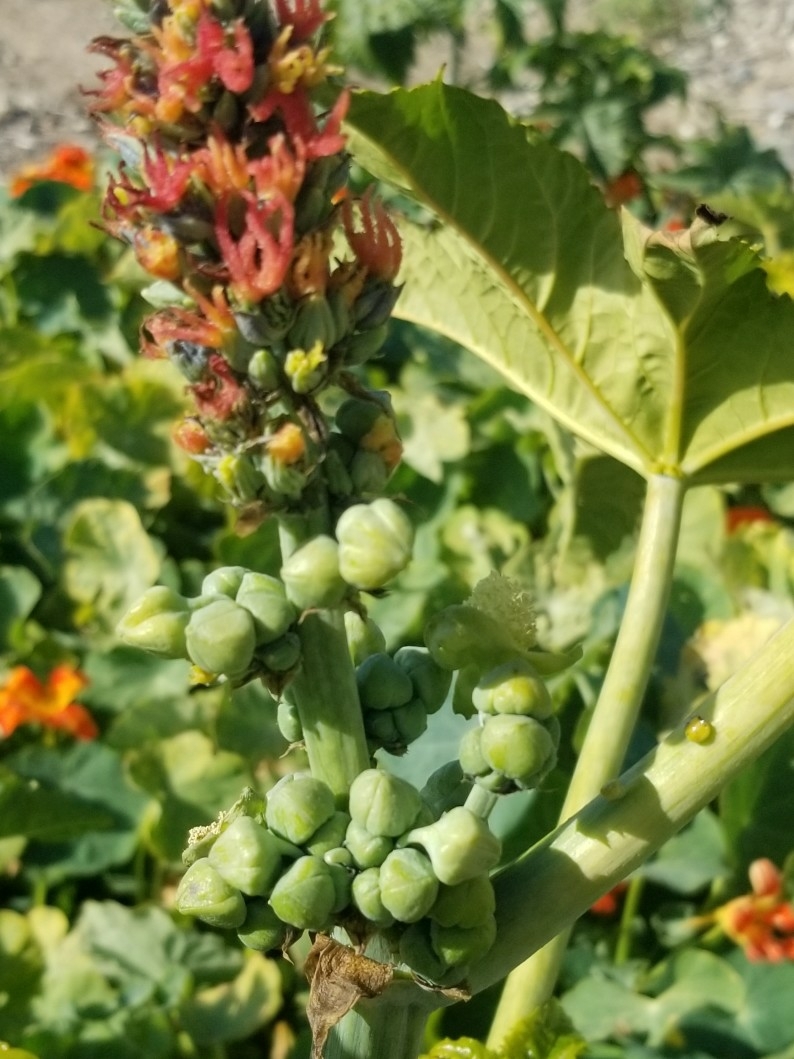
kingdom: Plantae
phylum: Tracheophyta
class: Magnoliopsida
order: Malpighiales
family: Euphorbiaceae
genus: Ricinus
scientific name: Ricinus communis
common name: Castor-oil-plant
